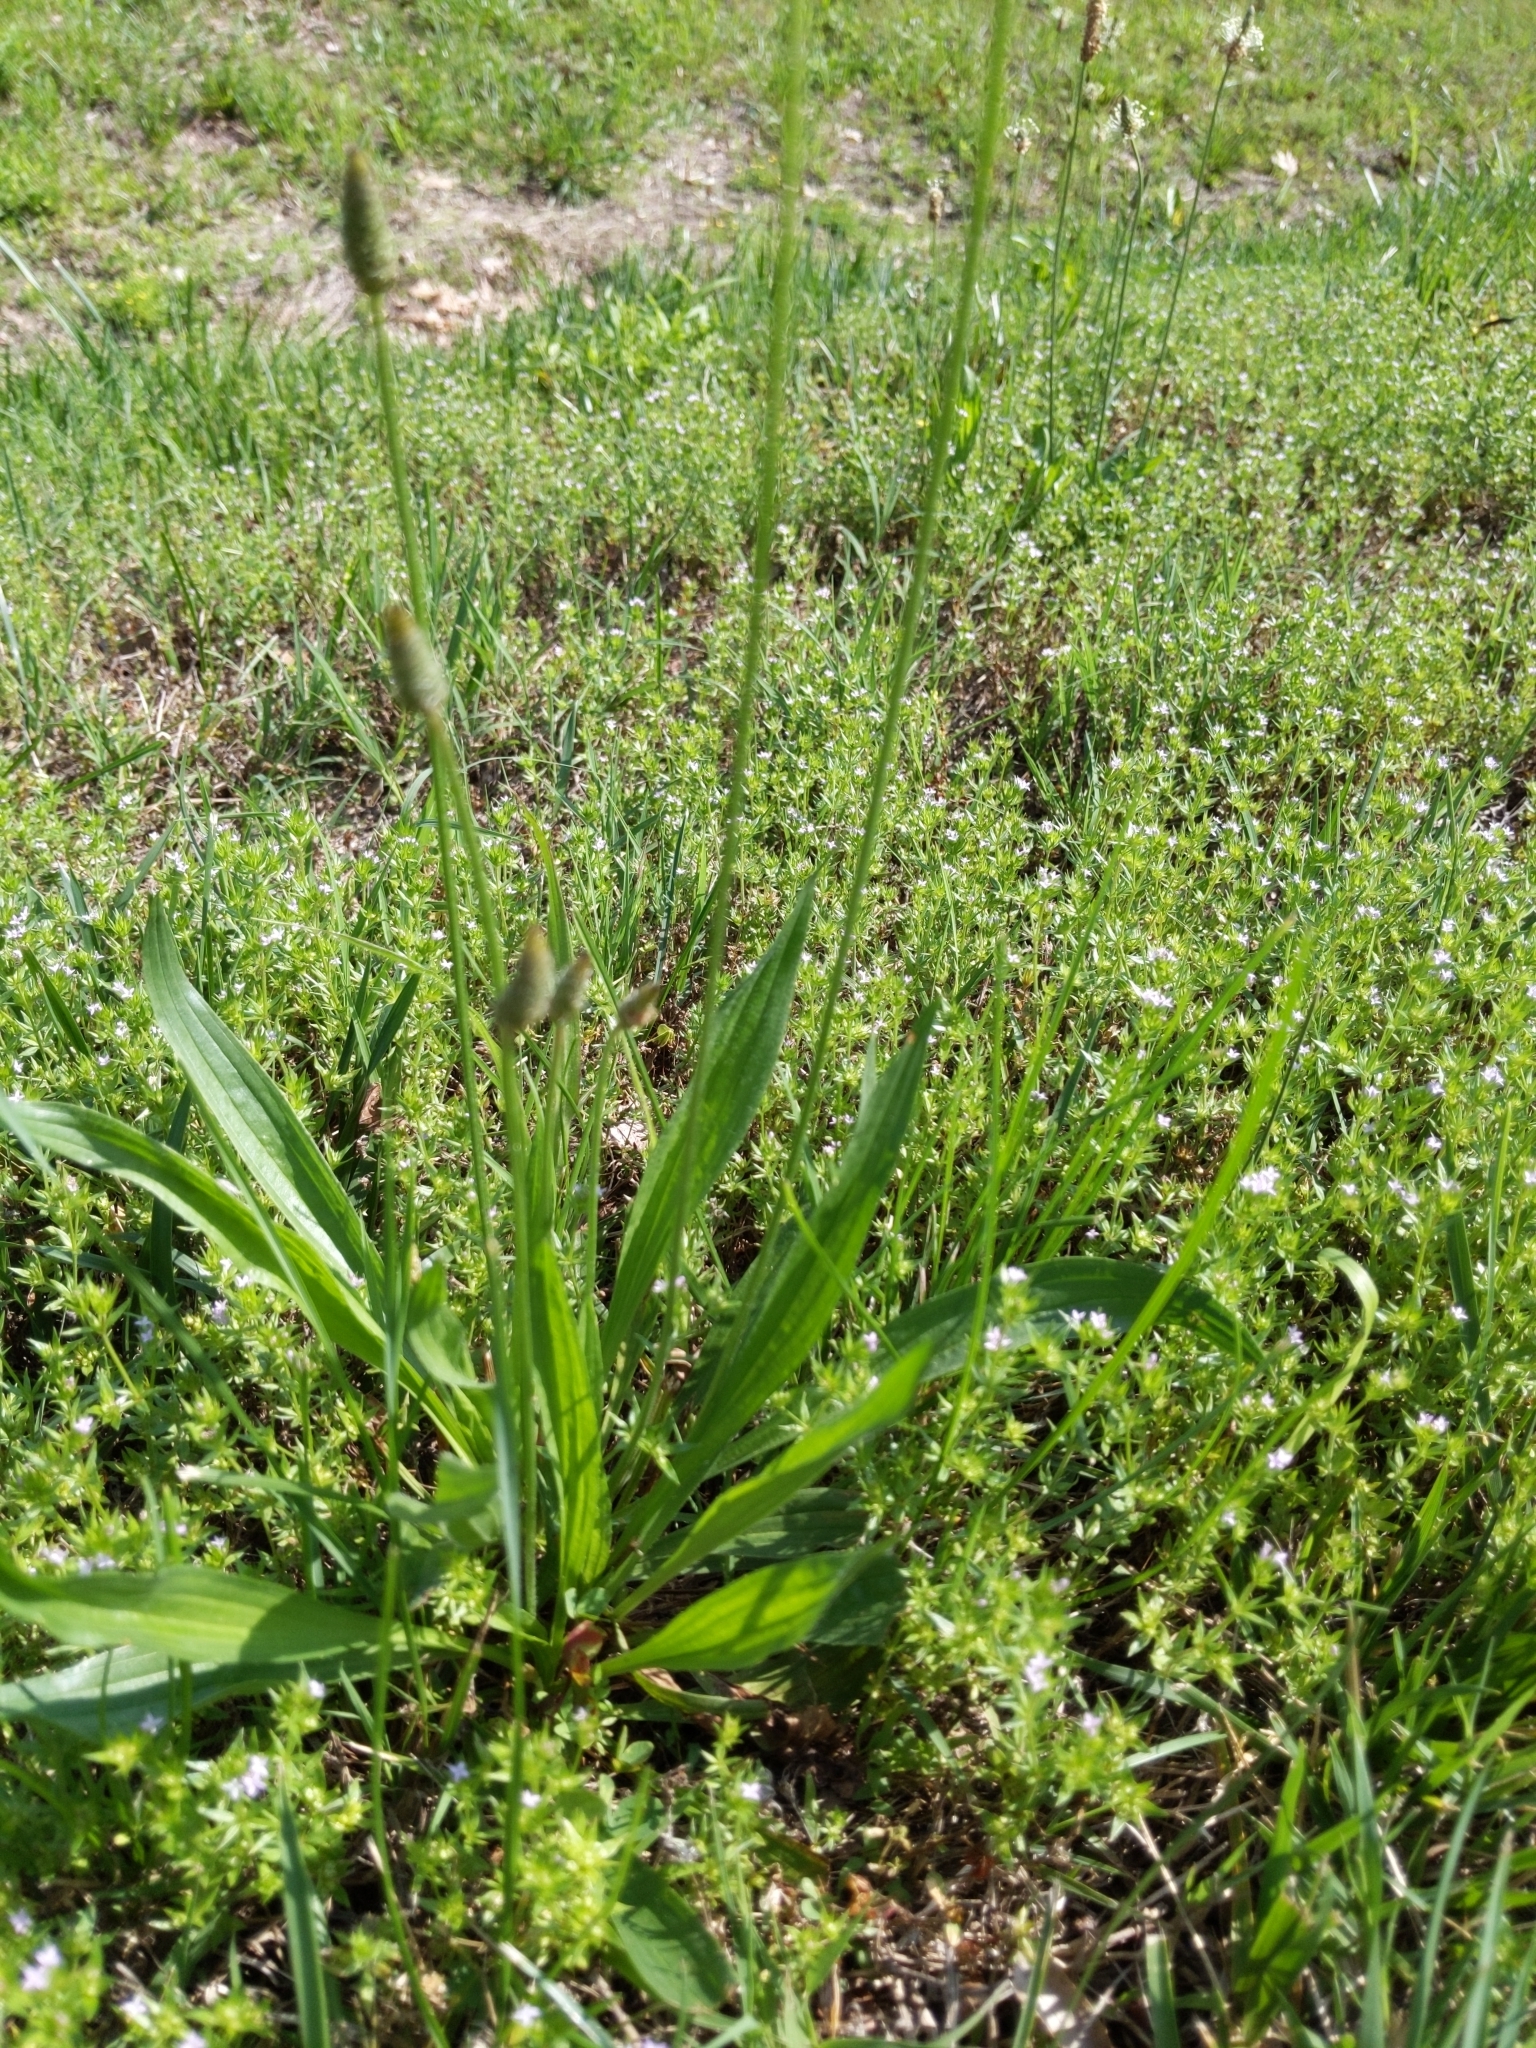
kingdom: Plantae
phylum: Tracheophyta
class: Magnoliopsida
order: Lamiales
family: Plantaginaceae
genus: Plantago
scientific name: Plantago lanceolata
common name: Ribwort plantain
